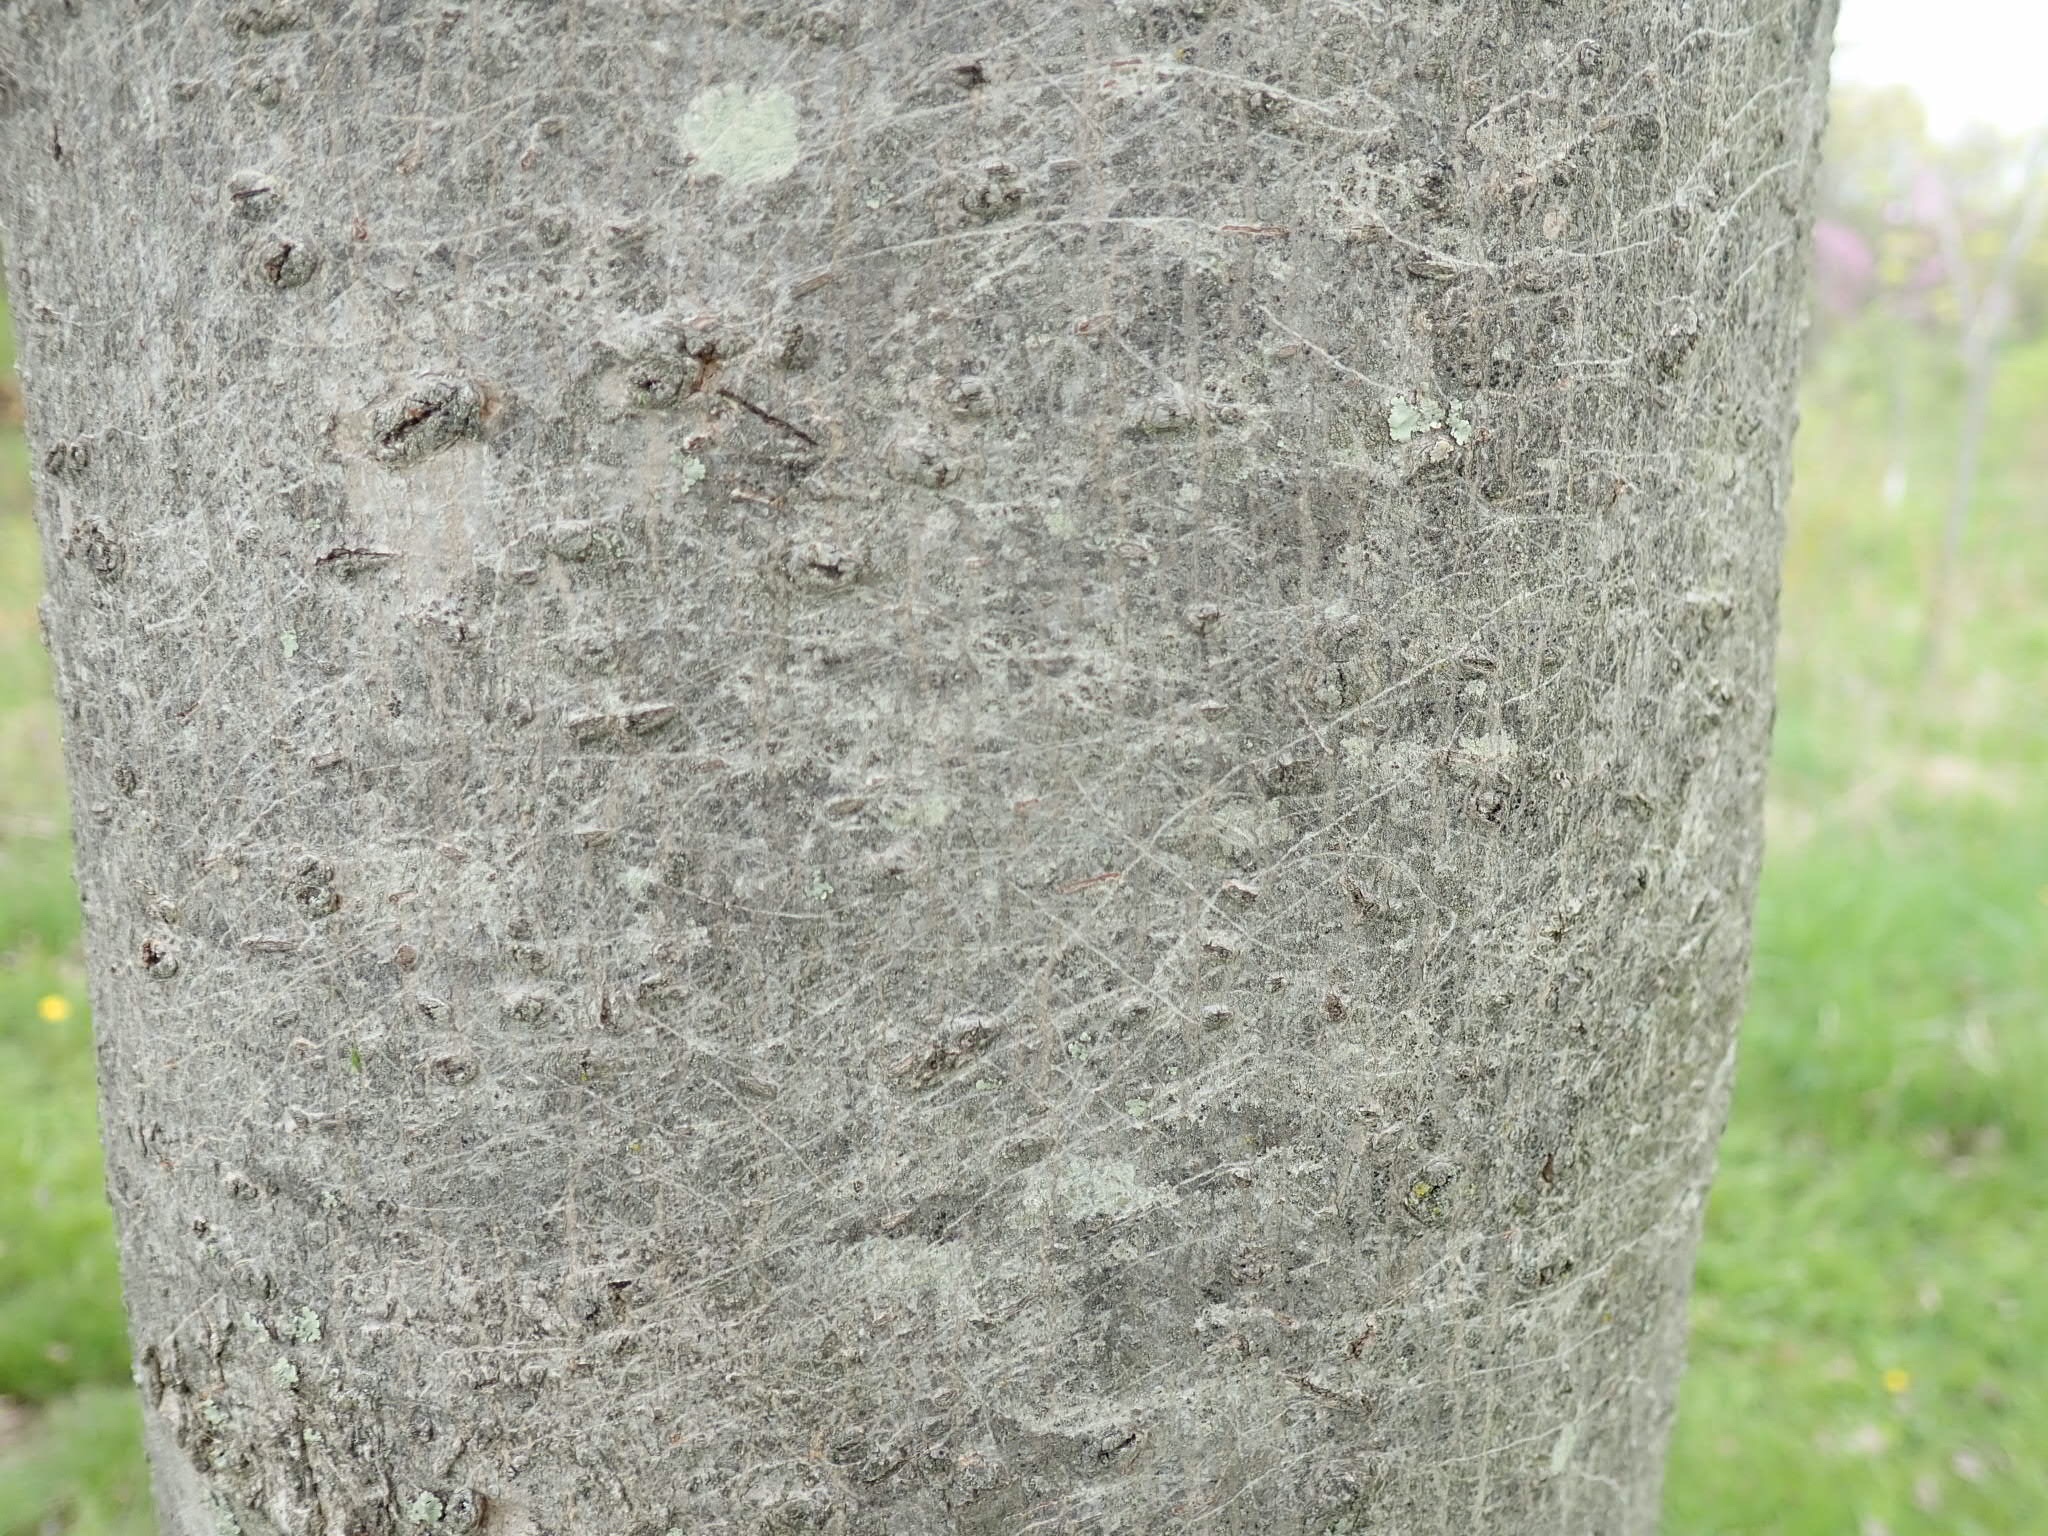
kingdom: Plantae
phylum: Tracheophyta
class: Magnoliopsida
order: Sapindales
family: Sapindaceae
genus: Acer
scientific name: Acer rubrum
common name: Red maple
